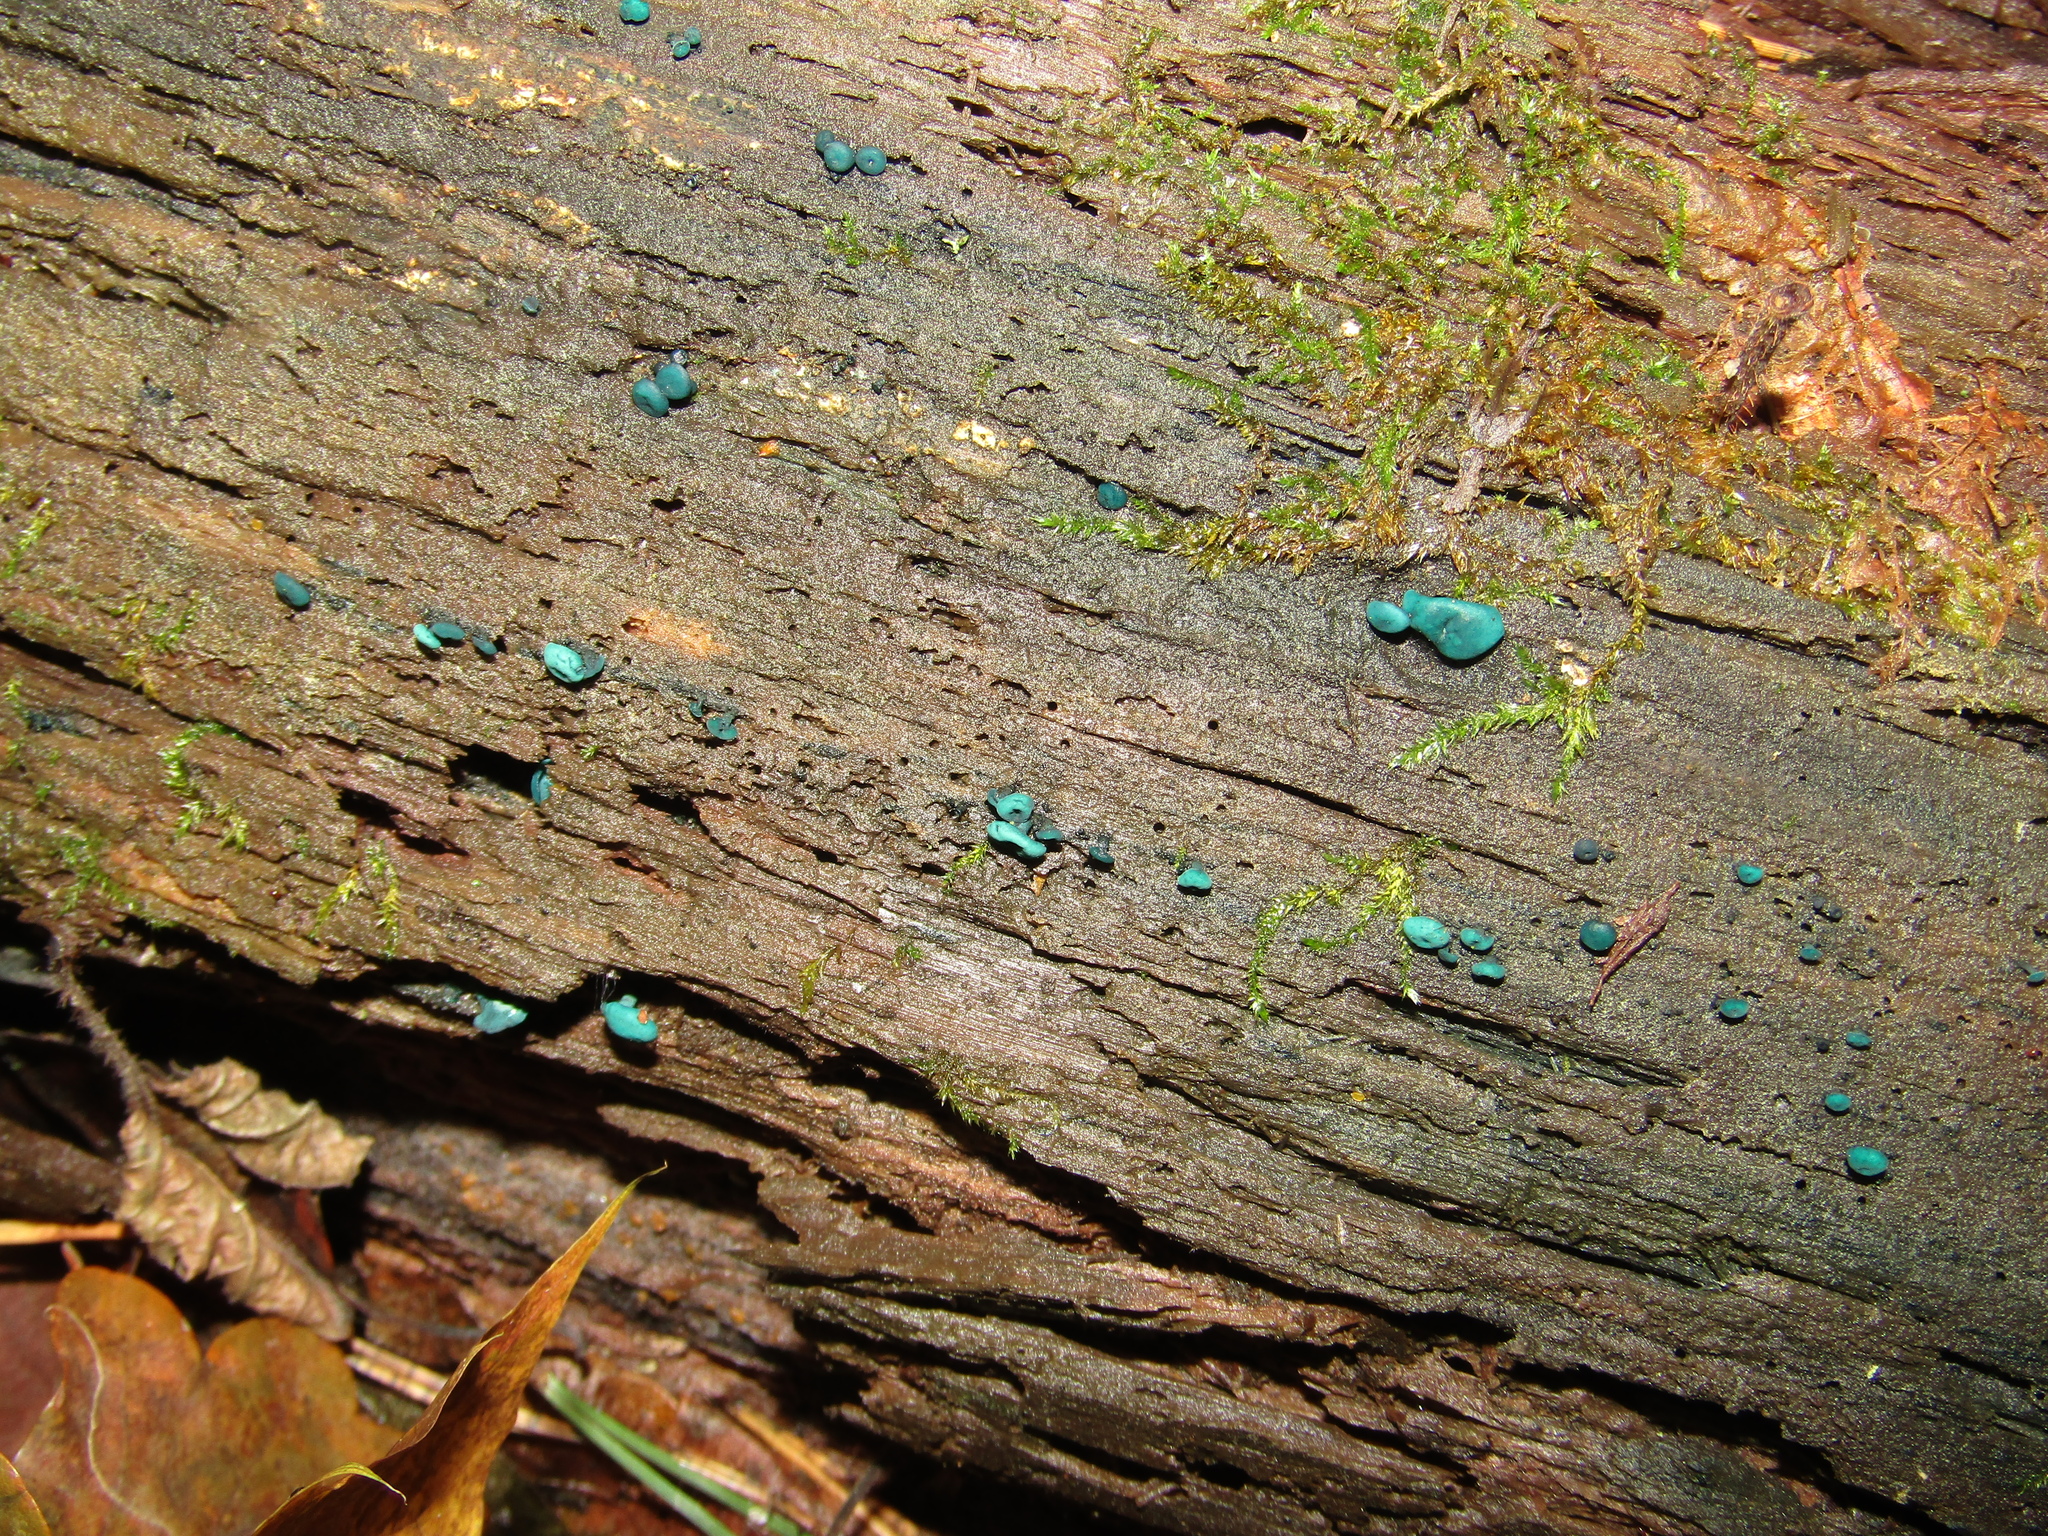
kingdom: Fungi
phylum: Ascomycota
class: Leotiomycetes
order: Helotiales
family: Chlorociboriaceae
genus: Chlorociboria
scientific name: Chlorociboria aeruginascens
